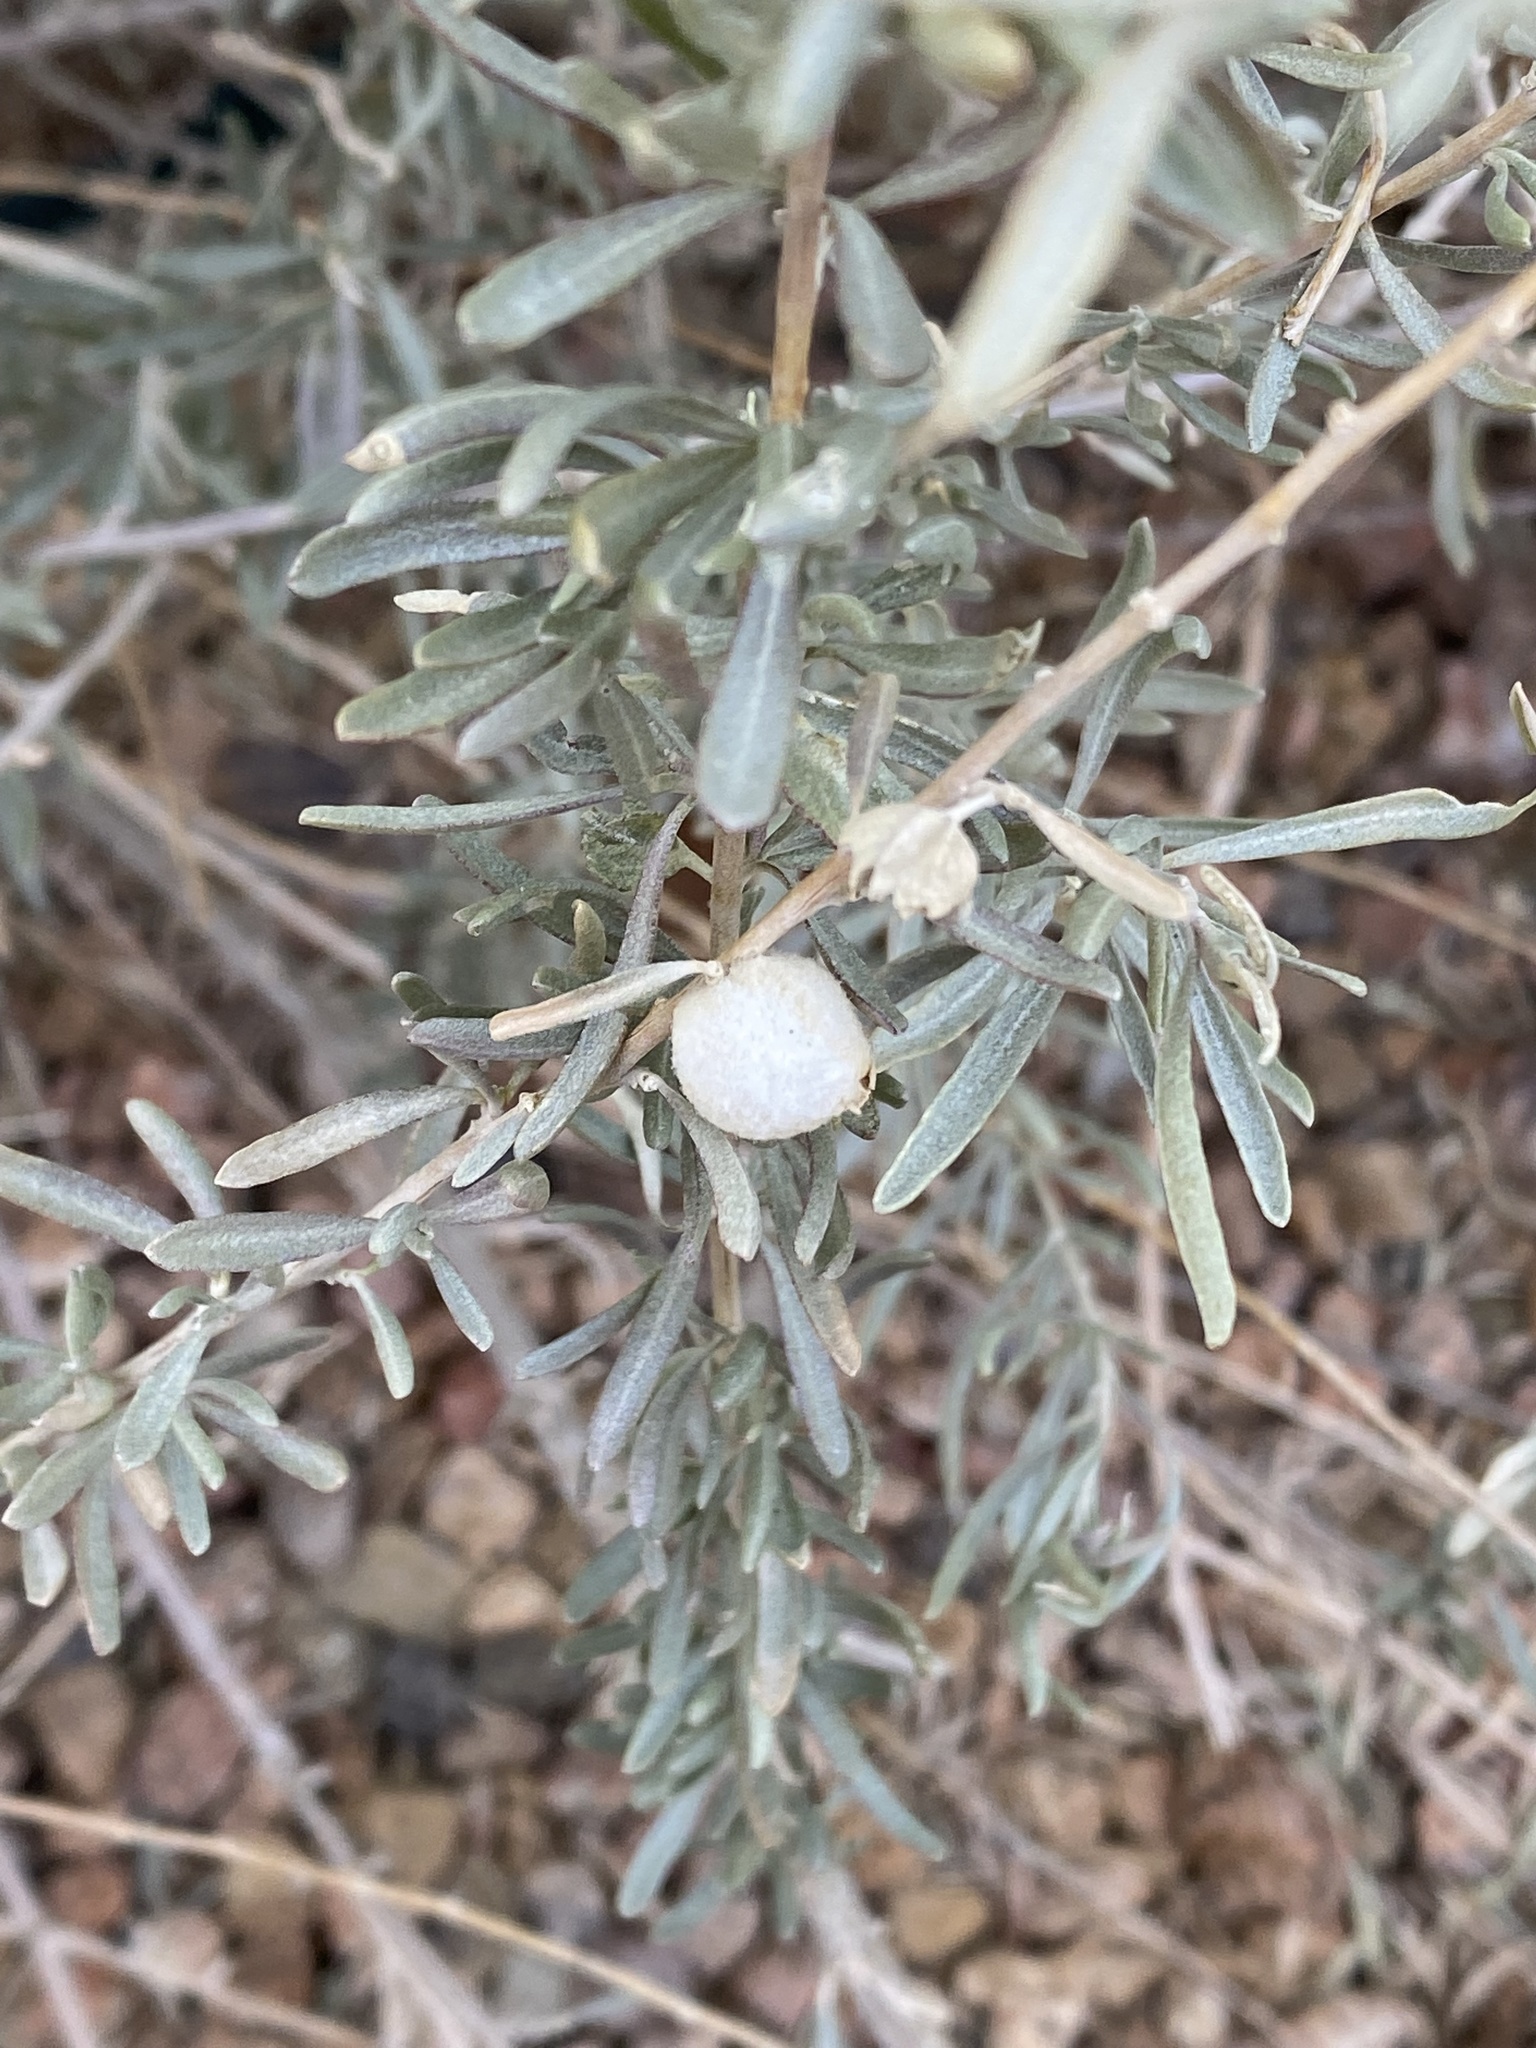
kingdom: Animalia
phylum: Arthropoda
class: Insecta
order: Diptera
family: Cecidomyiidae
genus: Asphondylia
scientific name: Asphondylia neomexicana
